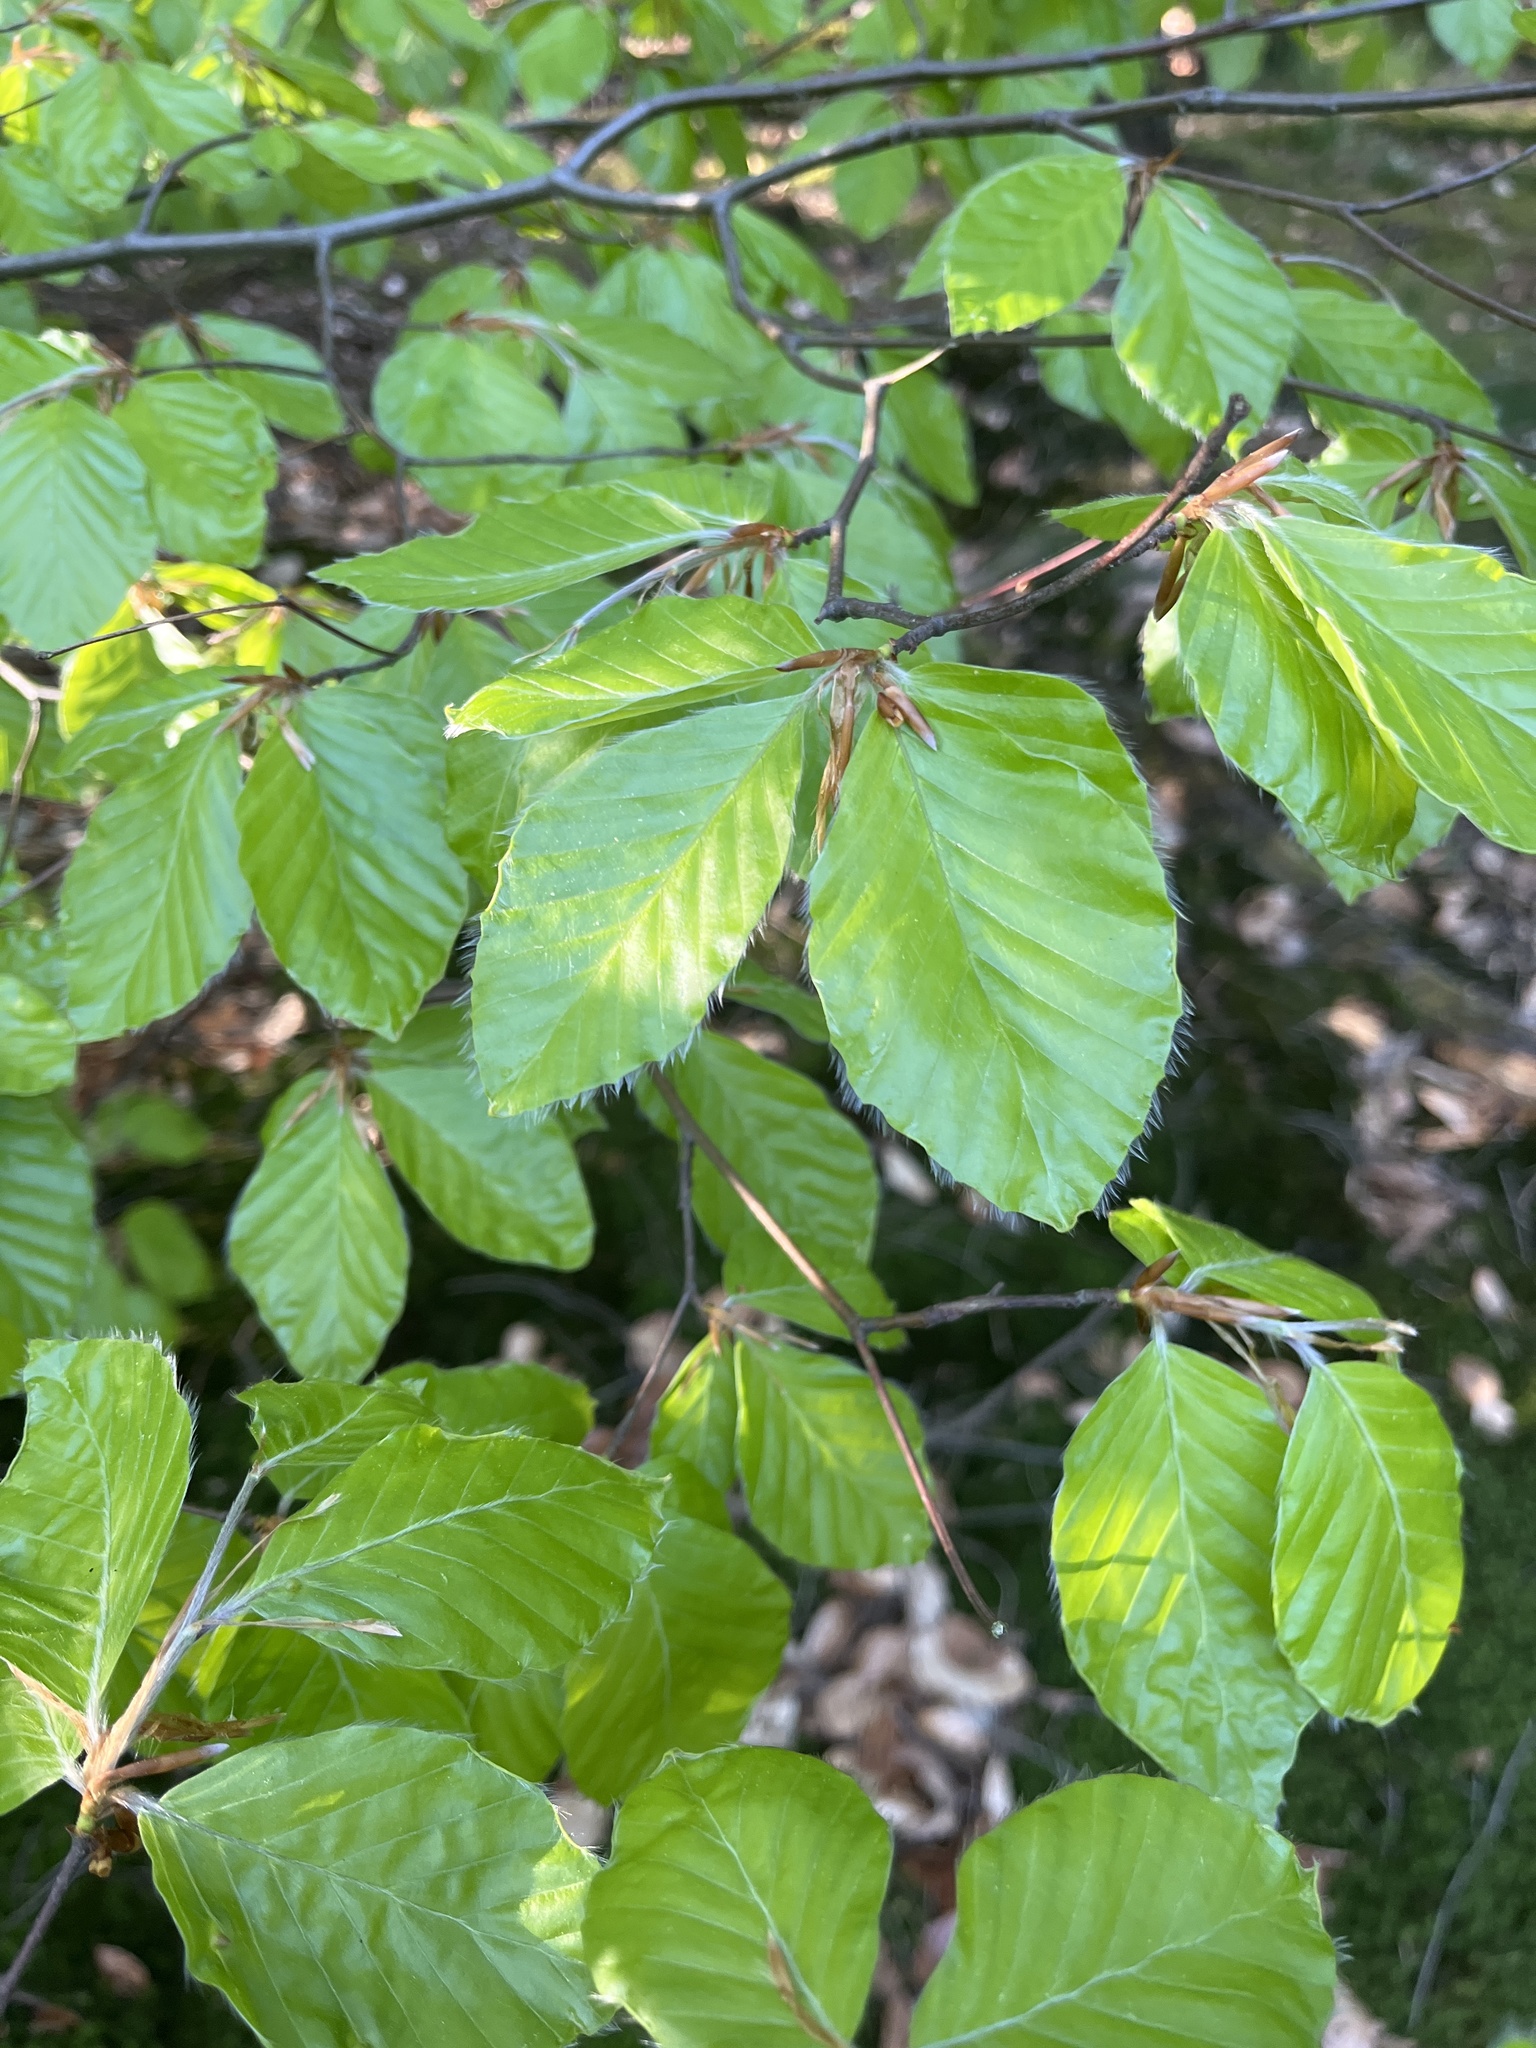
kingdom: Plantae
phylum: Tracheophyta
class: Magnoliopsida
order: Fagales
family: Fagaceae
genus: Fagus
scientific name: Fagus sylvatica
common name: Beech
